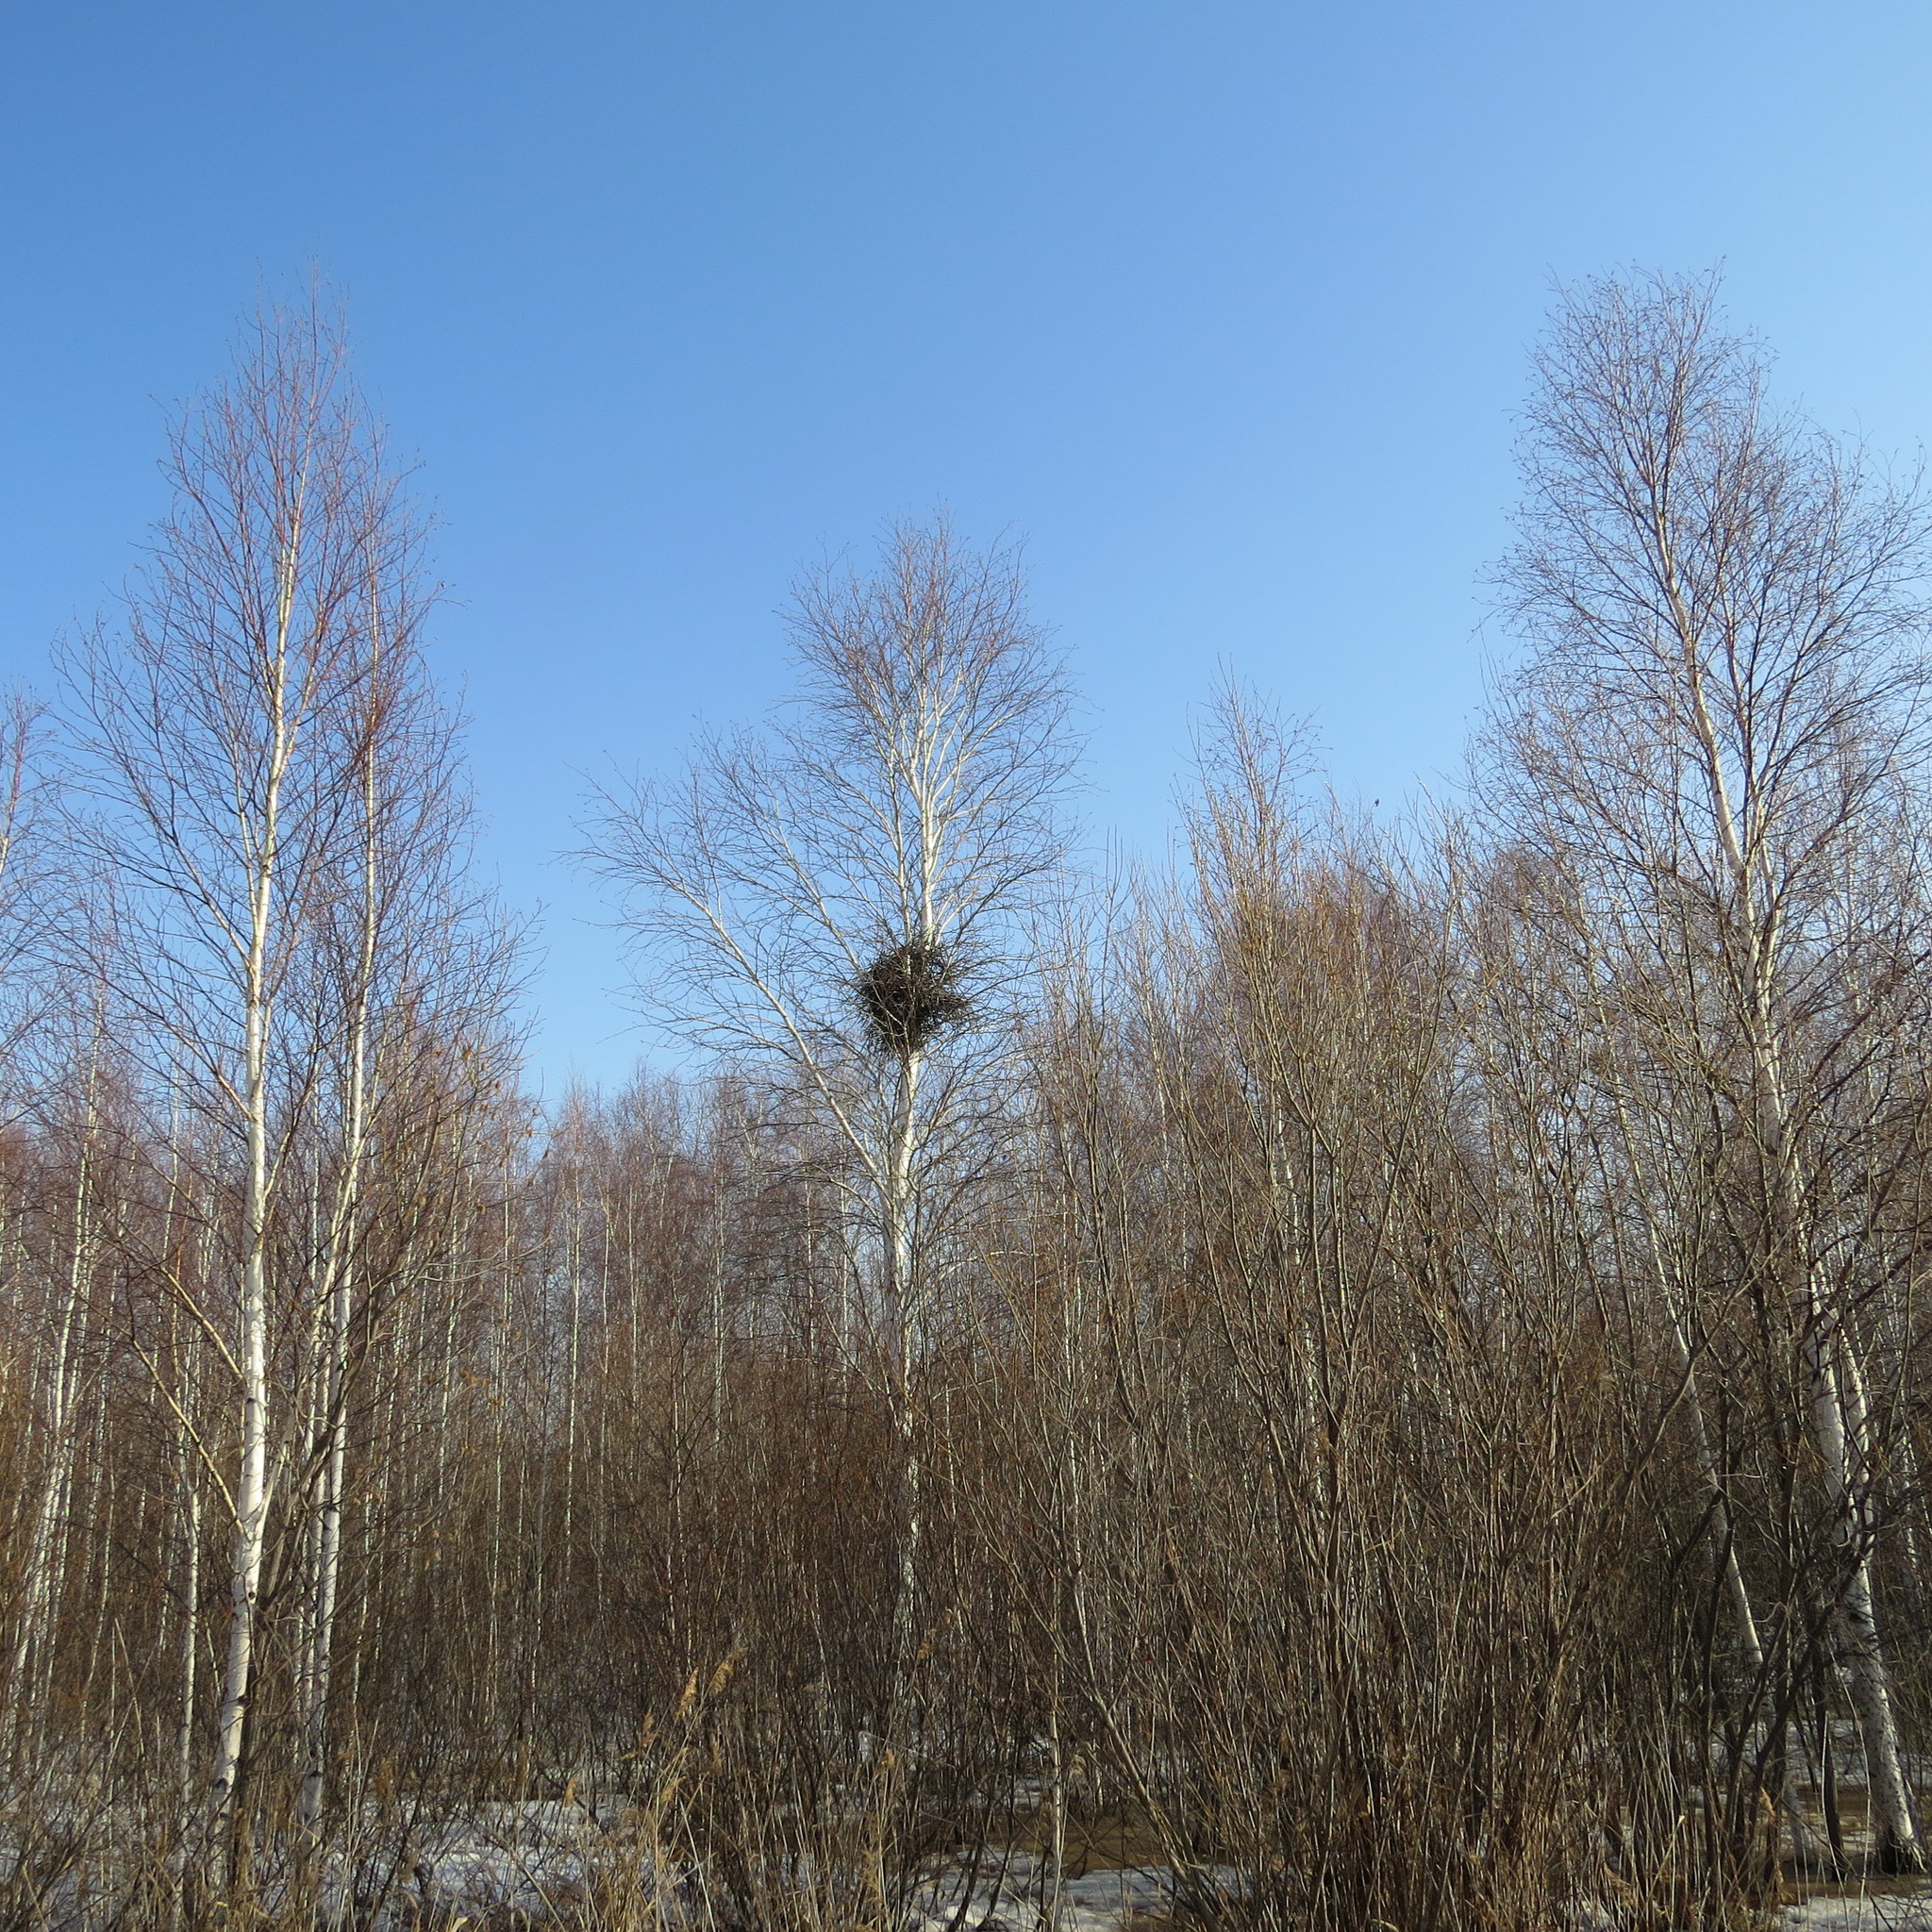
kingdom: Animalia
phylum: Chordata
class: Aves
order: Passeriformes
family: Corvidae
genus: Pica
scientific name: Pica pica
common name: Eurasian magpie
